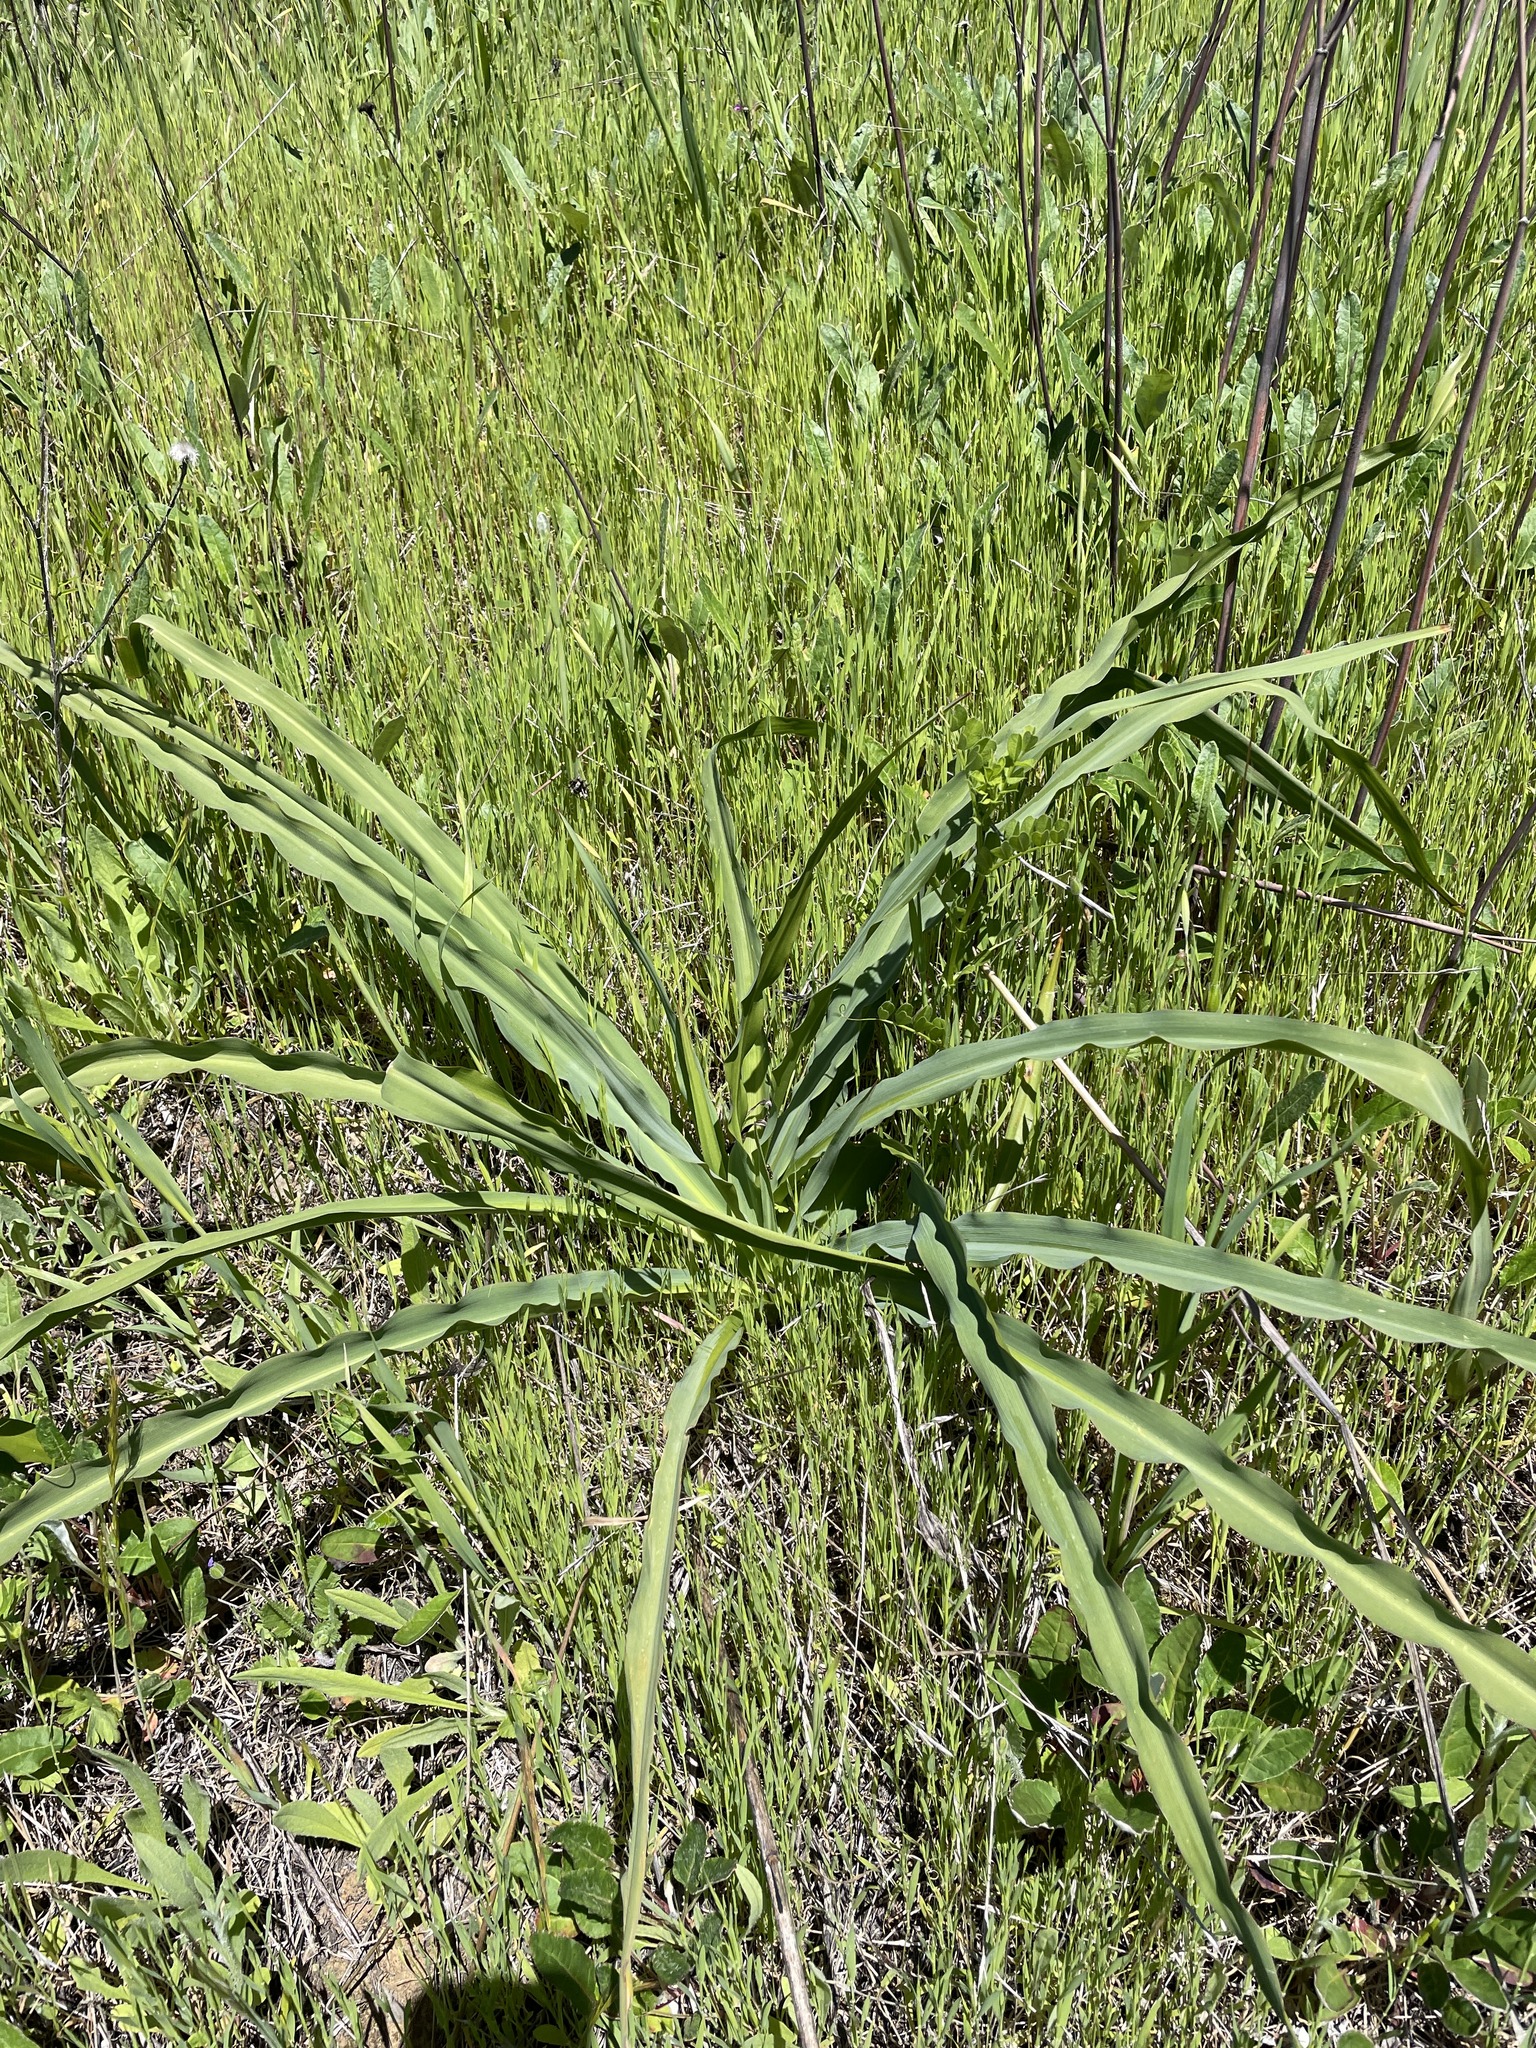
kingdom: Plantae
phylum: Tracheophyta
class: Liliopsida
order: Asparagales
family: Asparagaceae
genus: Chlorogalum
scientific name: Chlorogalum pomeridianum
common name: Amole
